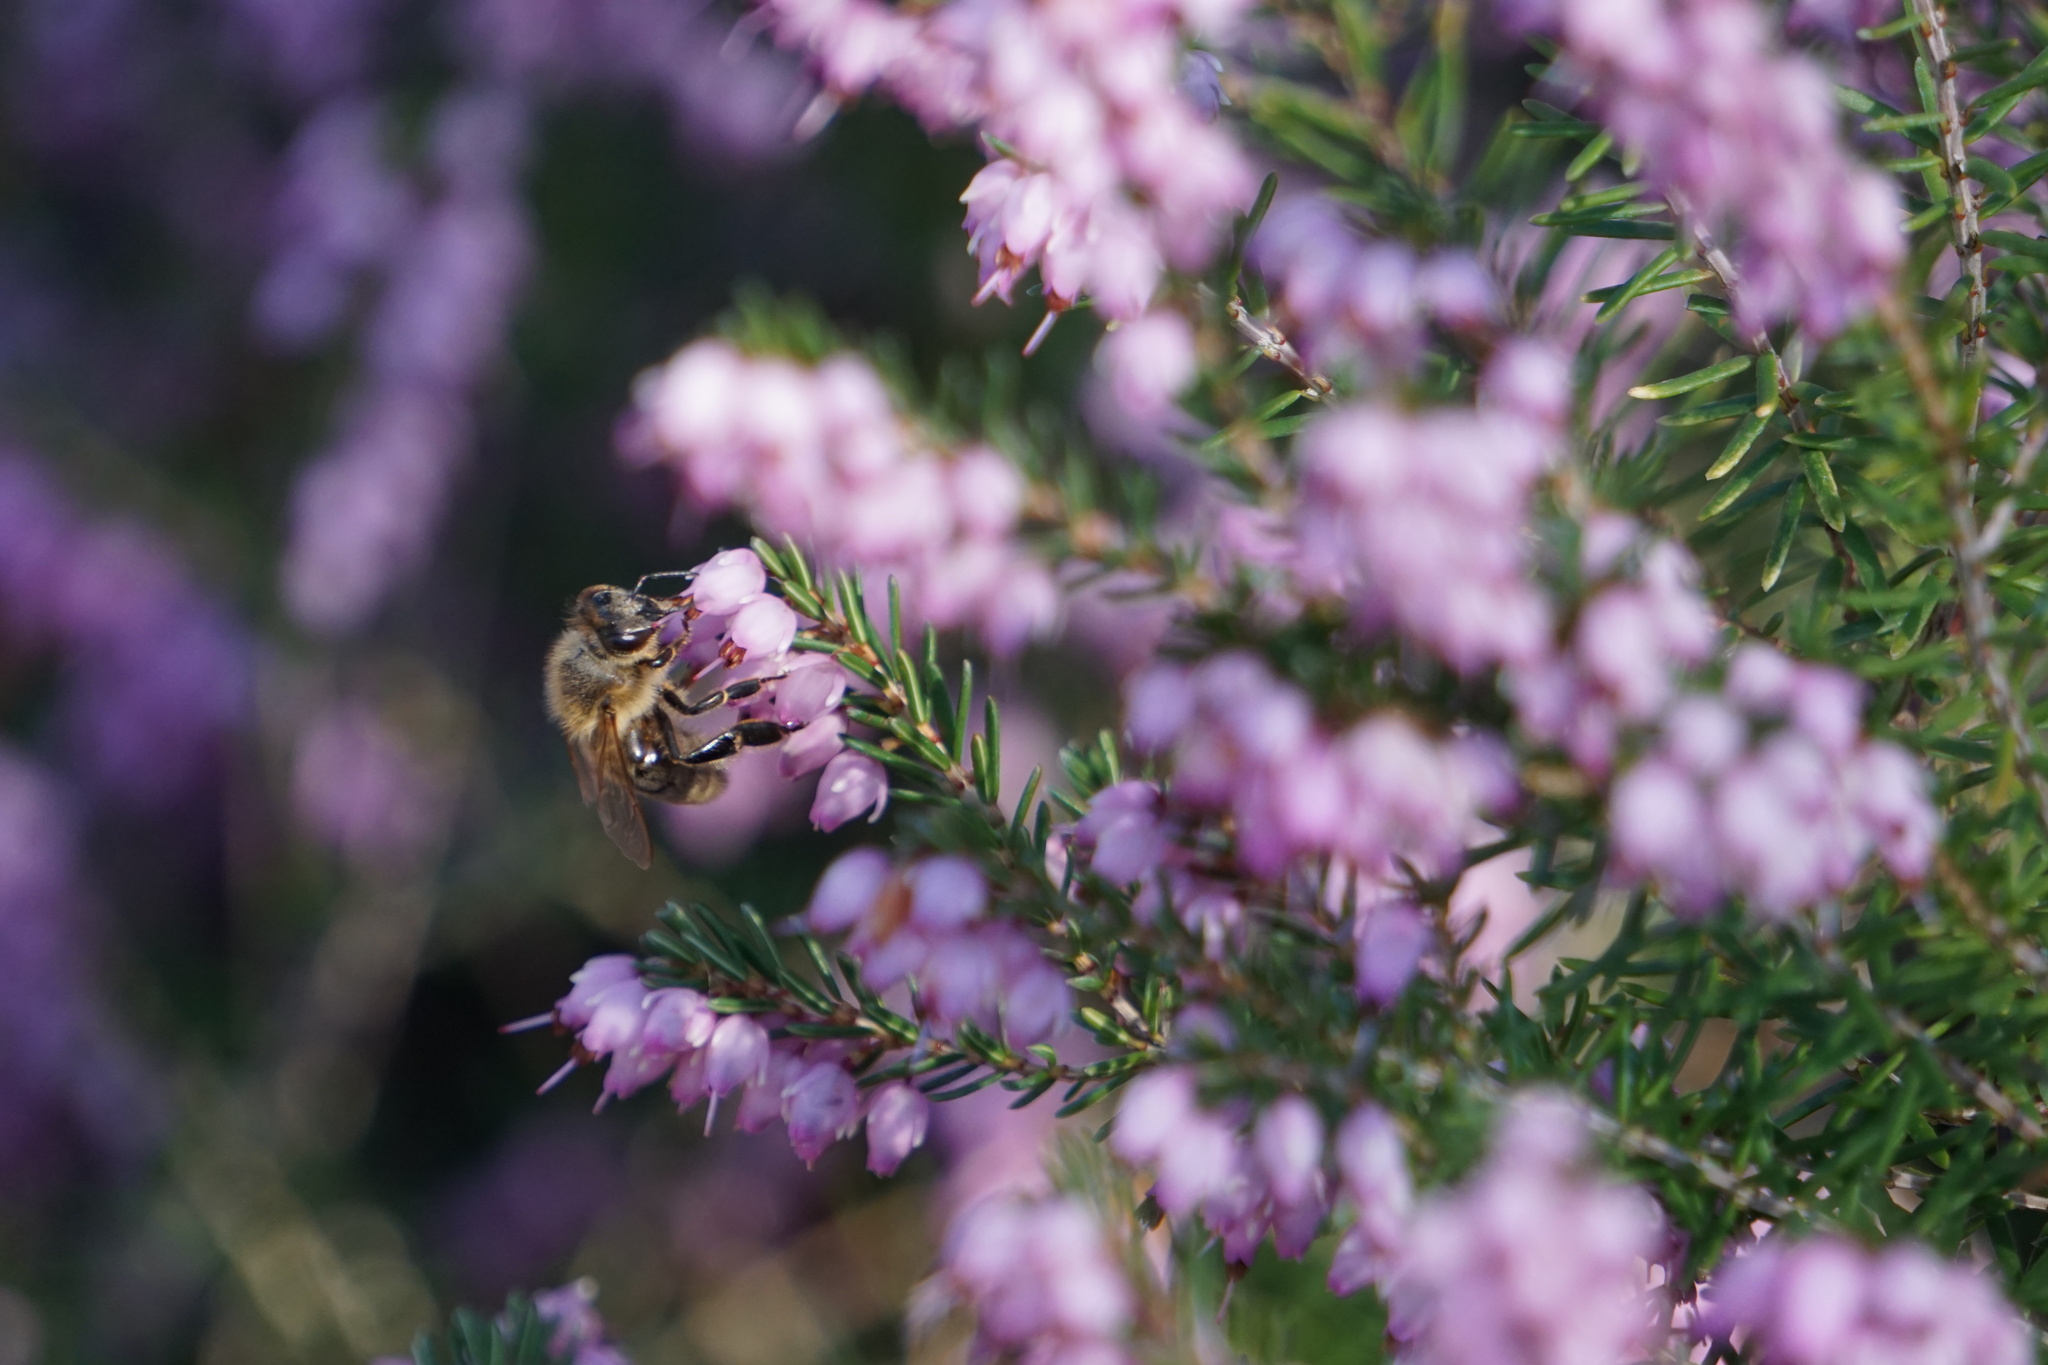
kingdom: Animalia
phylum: Arthropoda
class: Insecta
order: Hymenoptera
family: Apidae
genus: Apis
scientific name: Apis mellifera
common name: Honey bee
